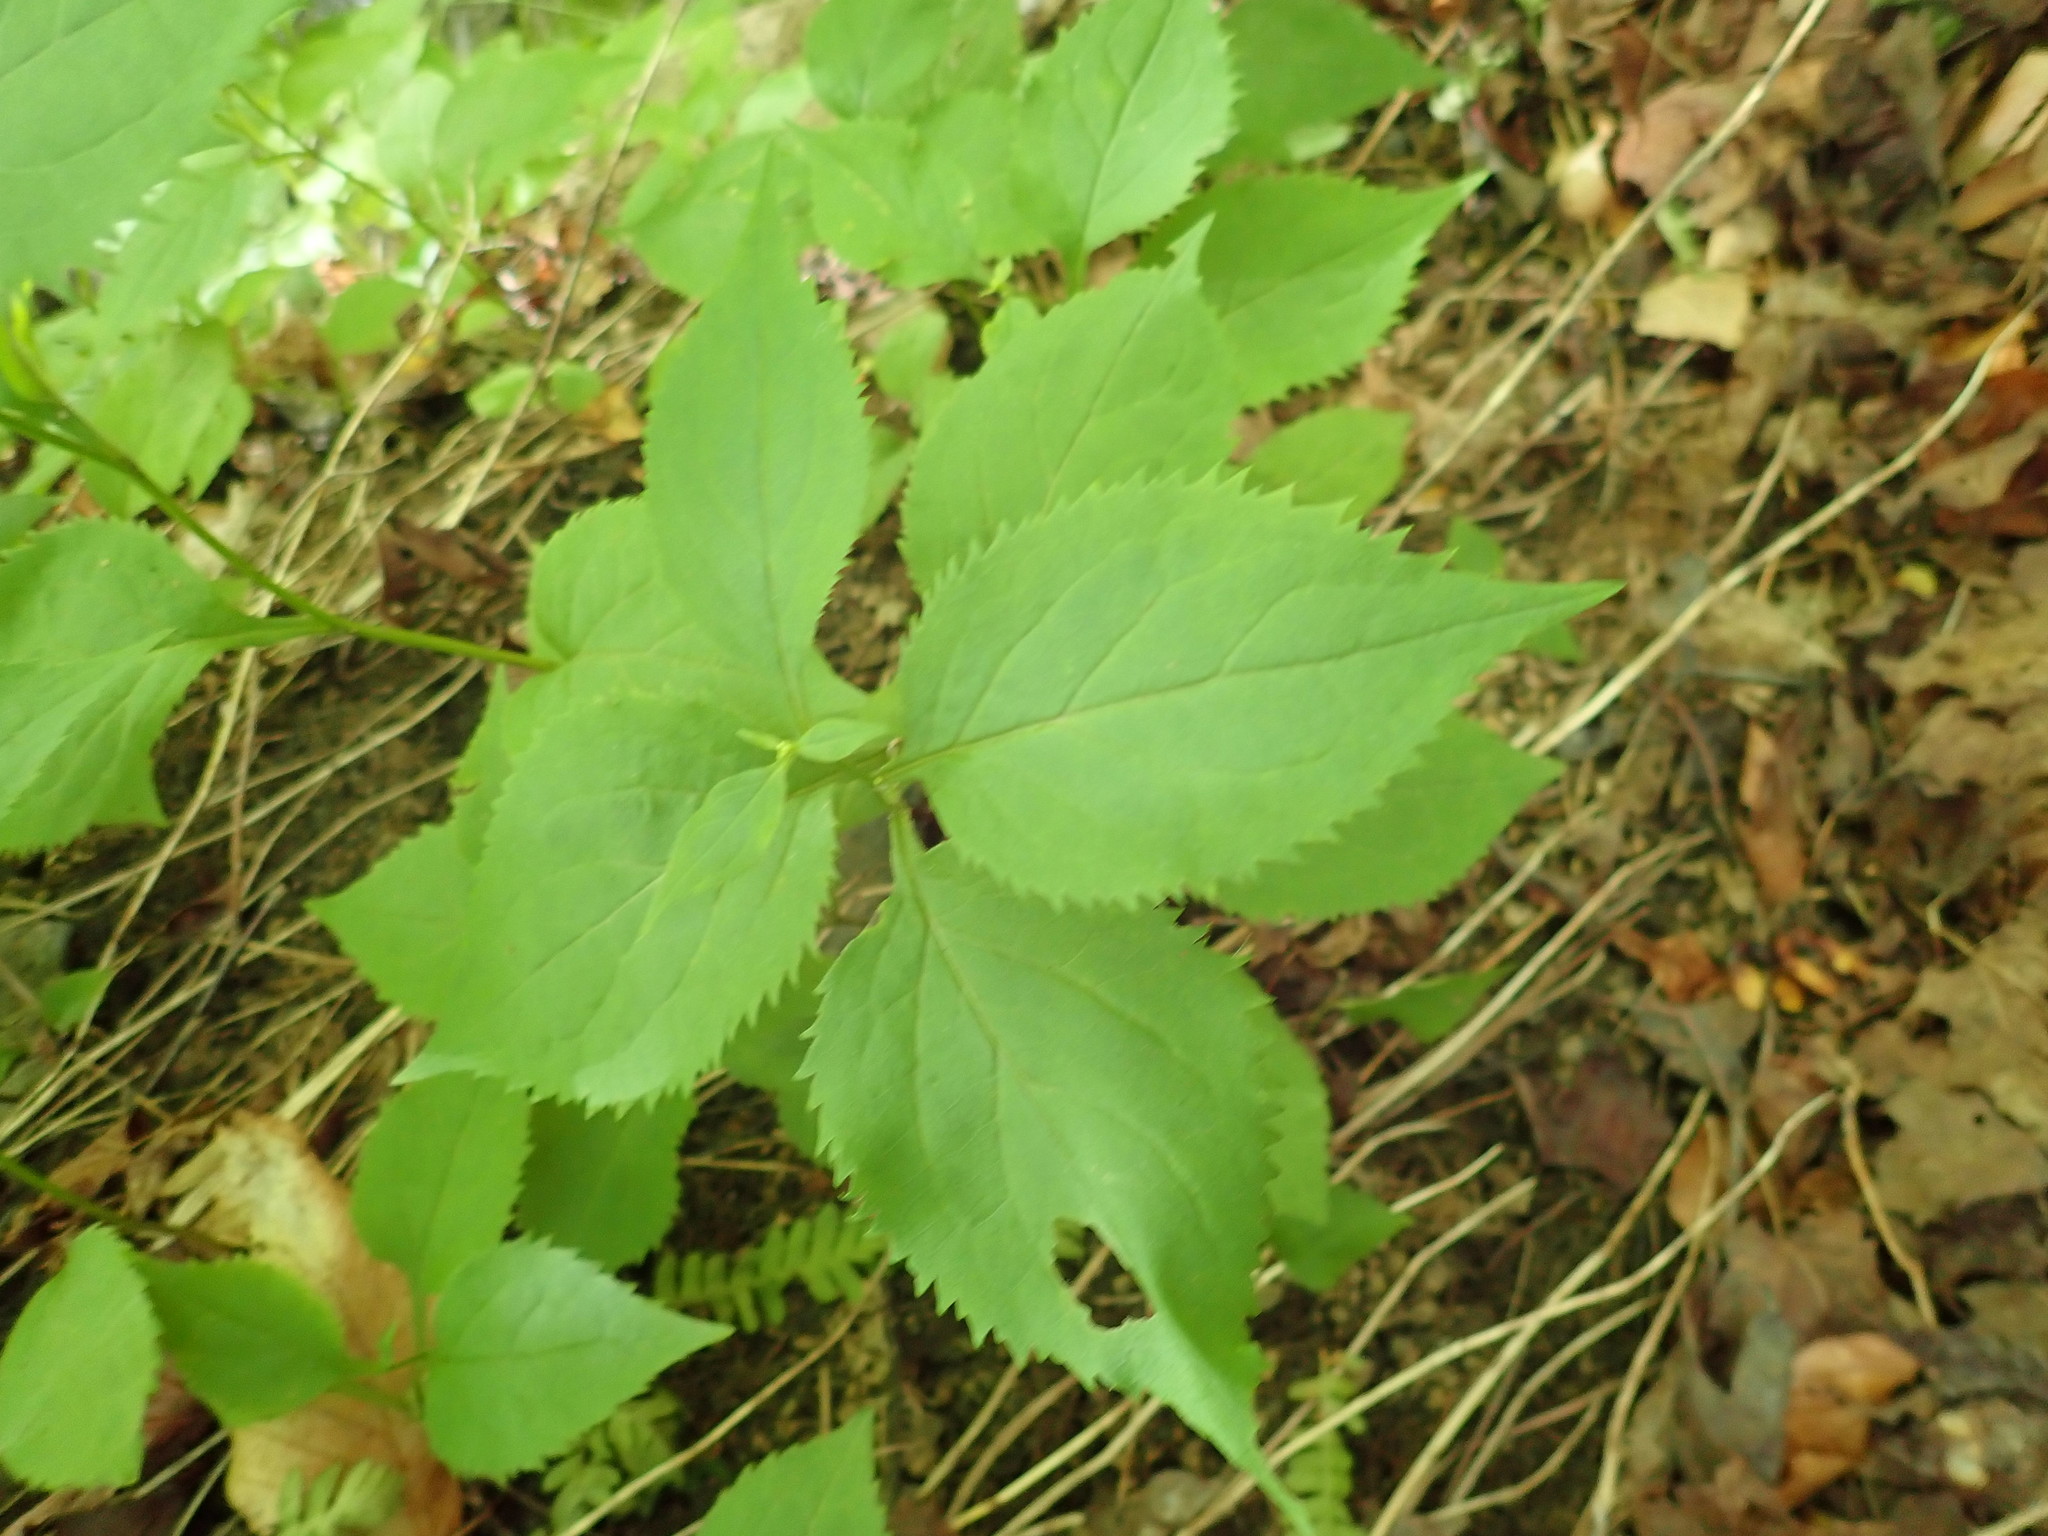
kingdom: Plantae
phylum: Tracheophyta
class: Magnoliopsida
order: Asterales
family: Asteraceae
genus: Solidago
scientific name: Solidago flexicaulis
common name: Zig-zag goldenrod
